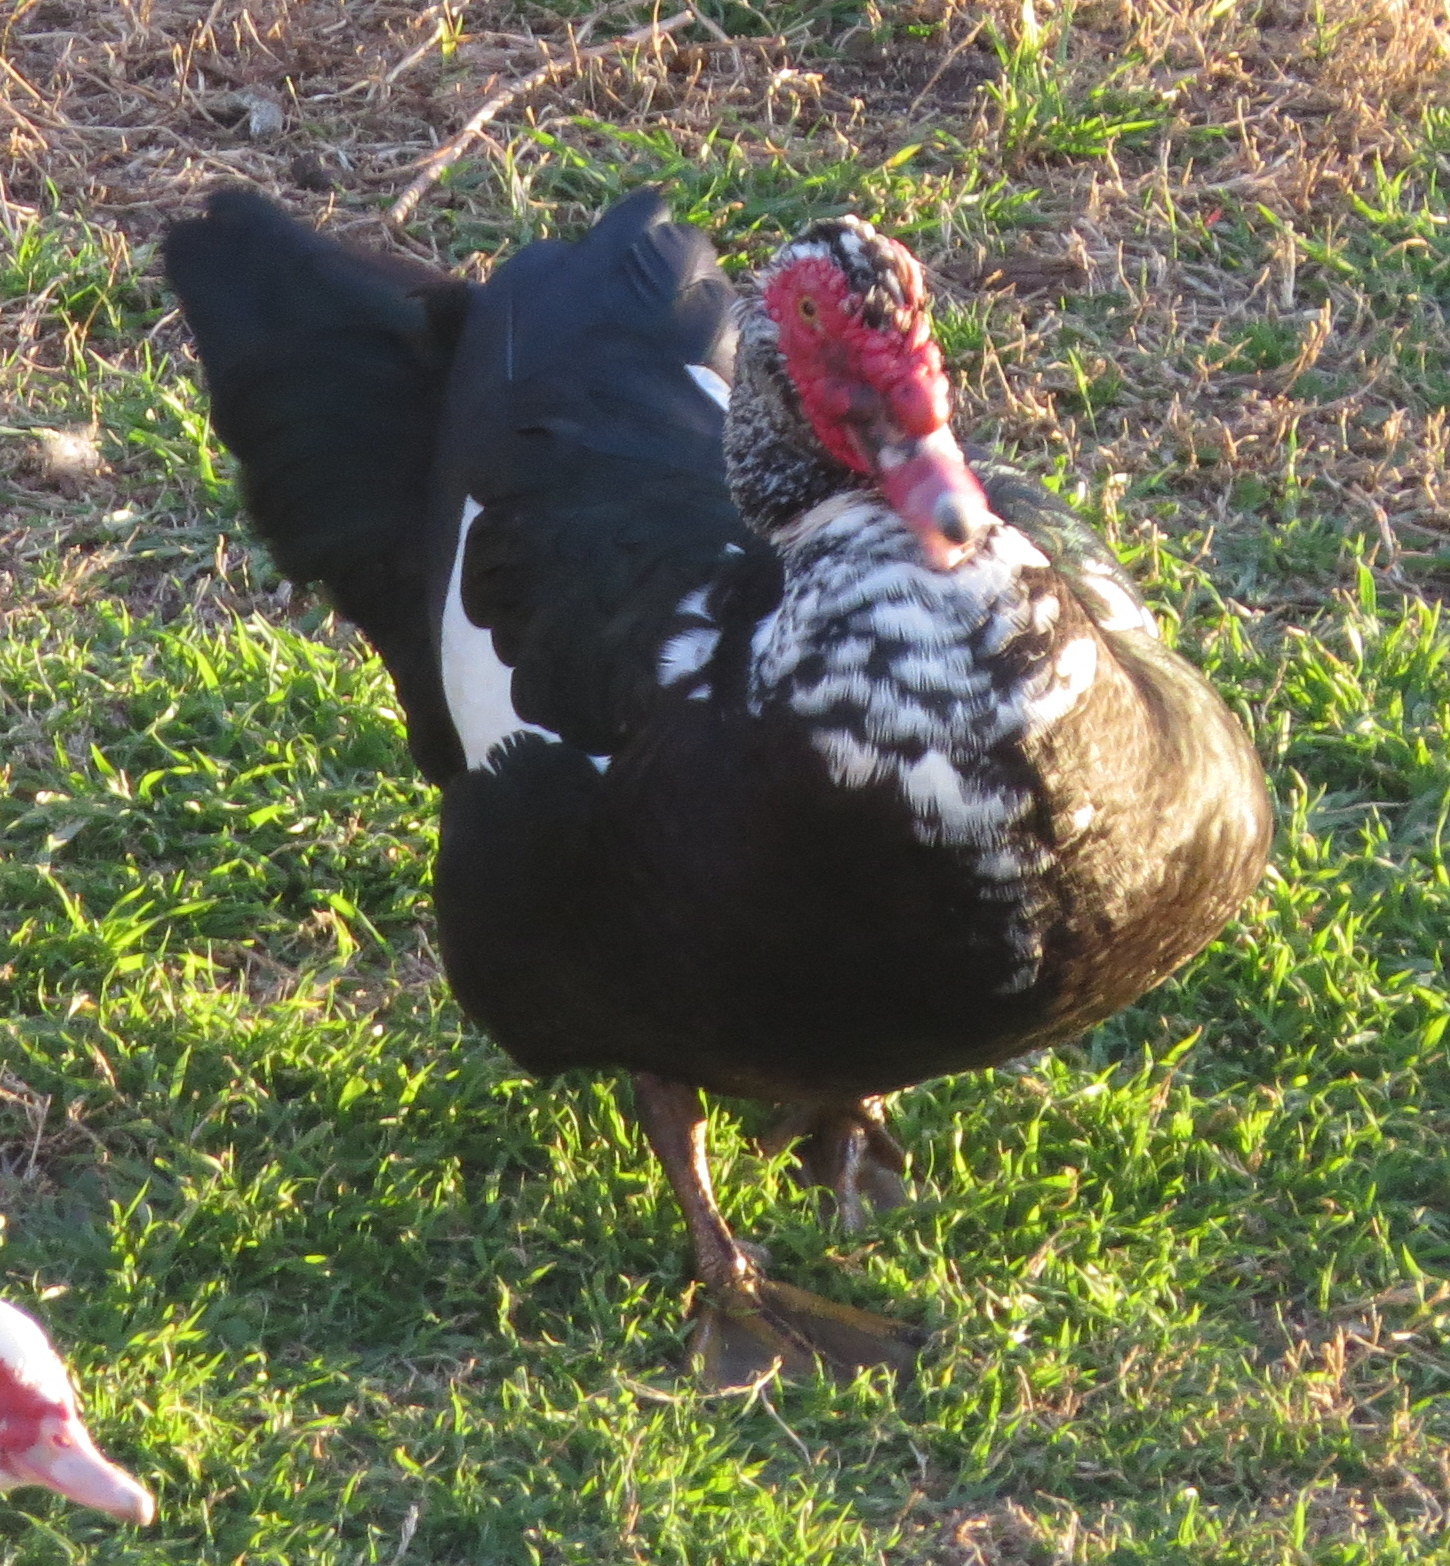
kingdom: Animalia
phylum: Chordata
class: Aves
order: Anseriformes
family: Anatidae
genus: Cairina
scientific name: Cairina moschata
